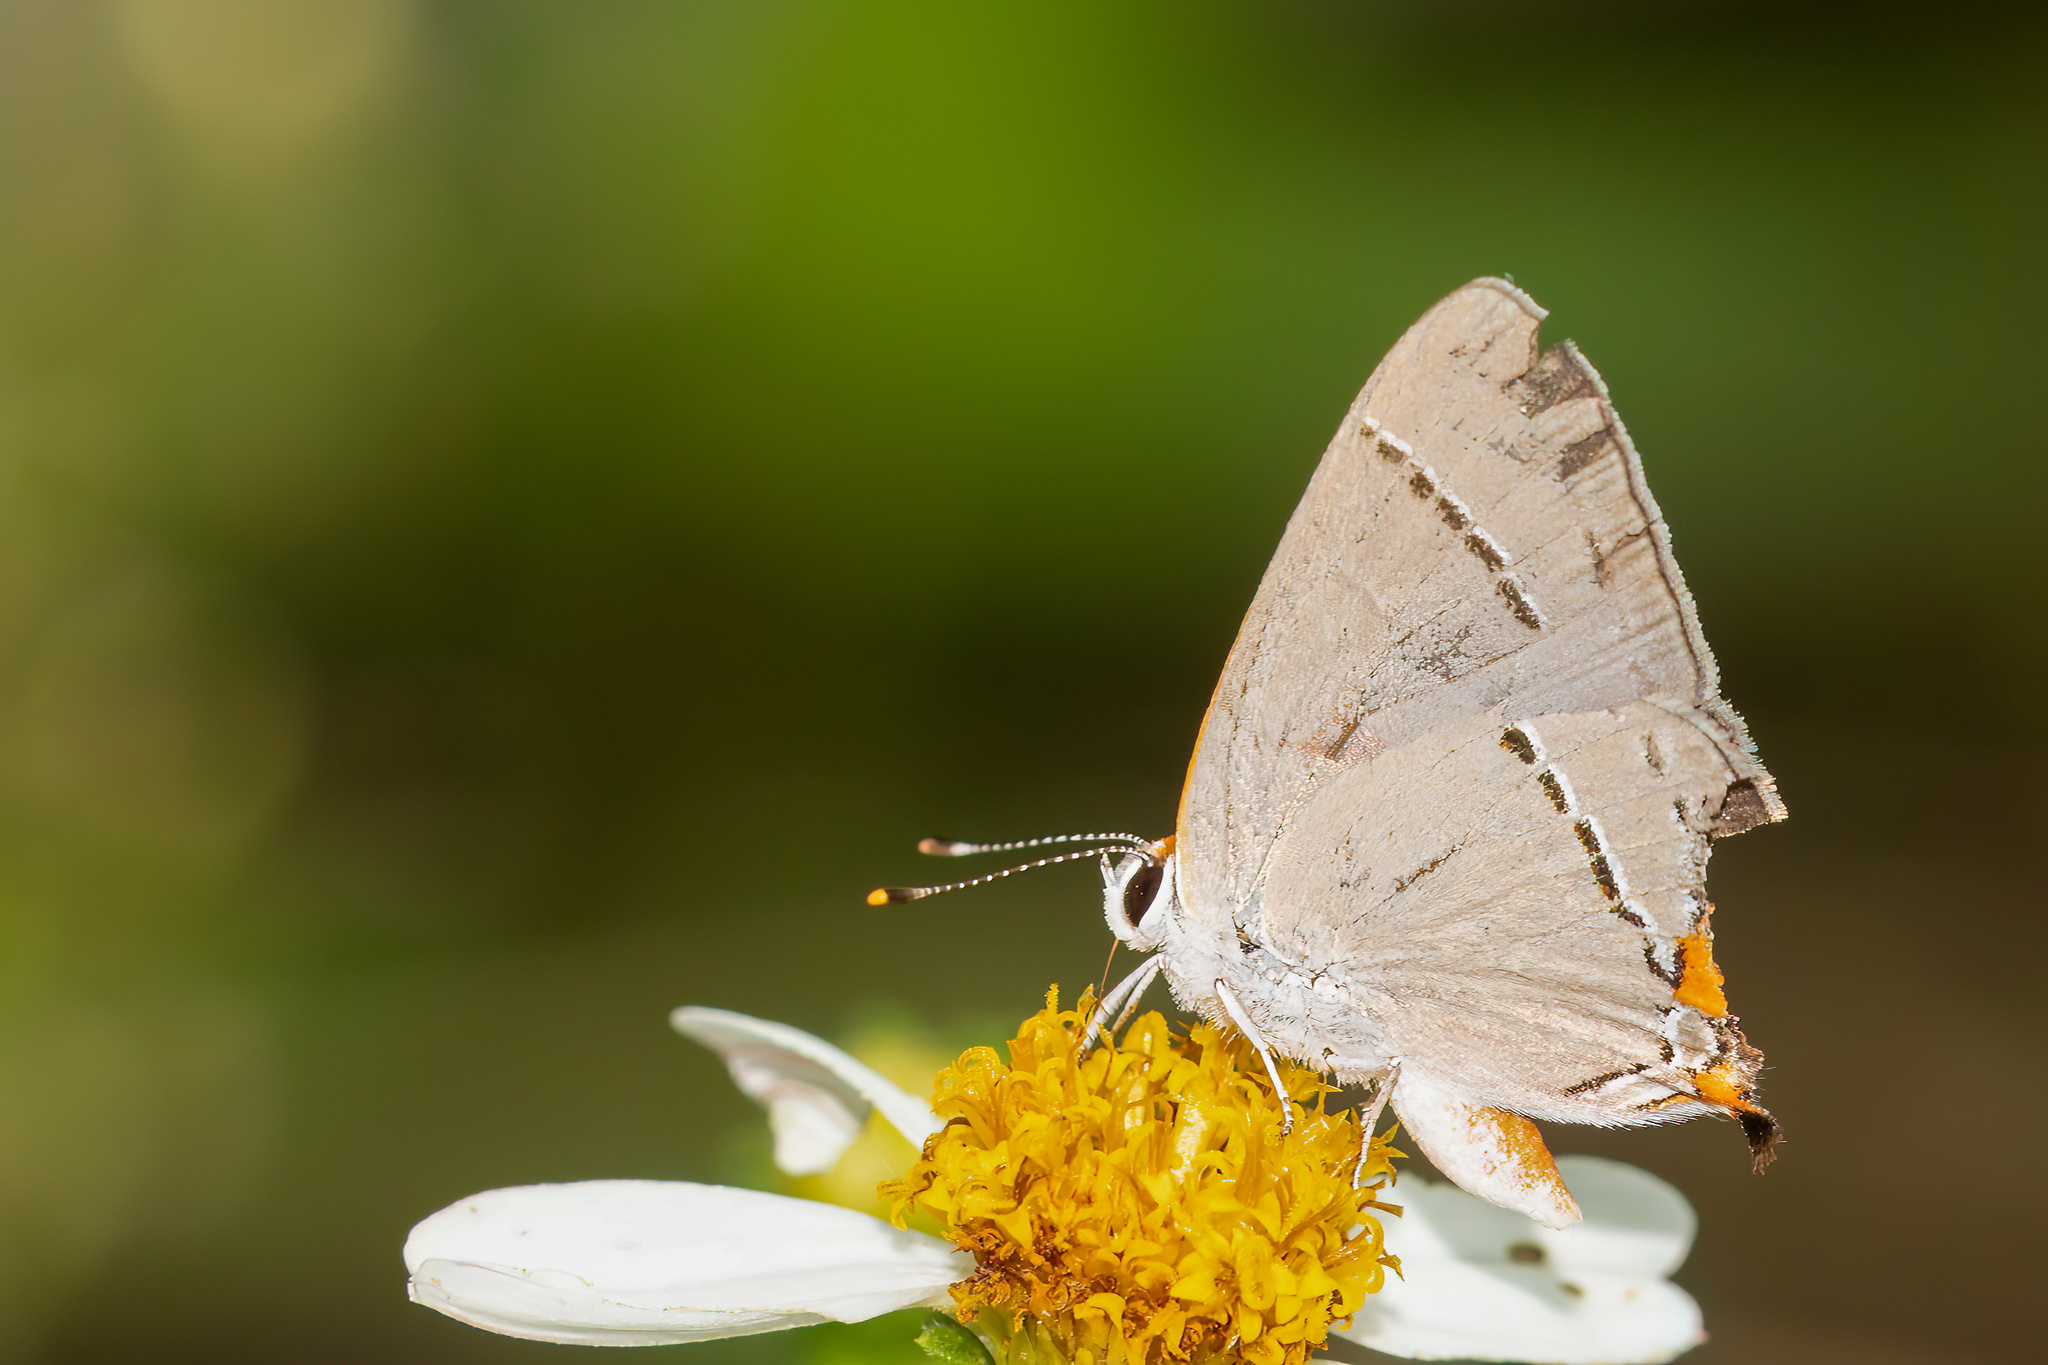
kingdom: Animalia
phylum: Arthropoda
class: Insecta
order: Lepidoptera
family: Lycaenidae
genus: Strymon
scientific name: Strymon melinus
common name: Gray hairstreak
